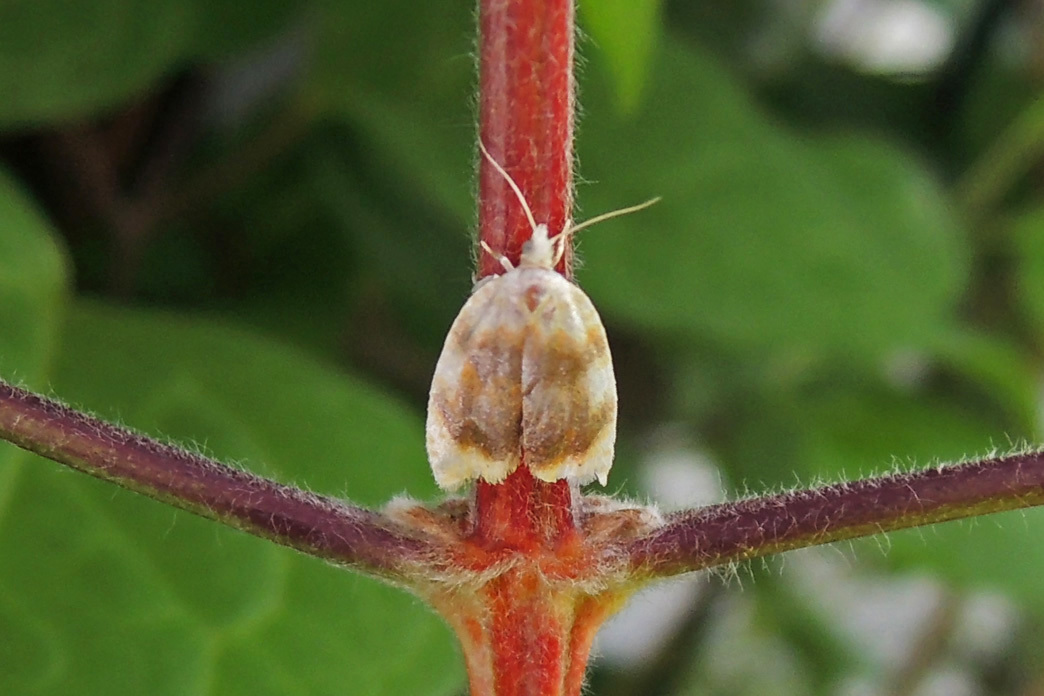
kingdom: Animalia
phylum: Arthropoda
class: Insecta
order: Lepidoptera
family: Tortricidae
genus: Acleris
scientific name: Acleris semipurpurana
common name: Oak leaftier moth
